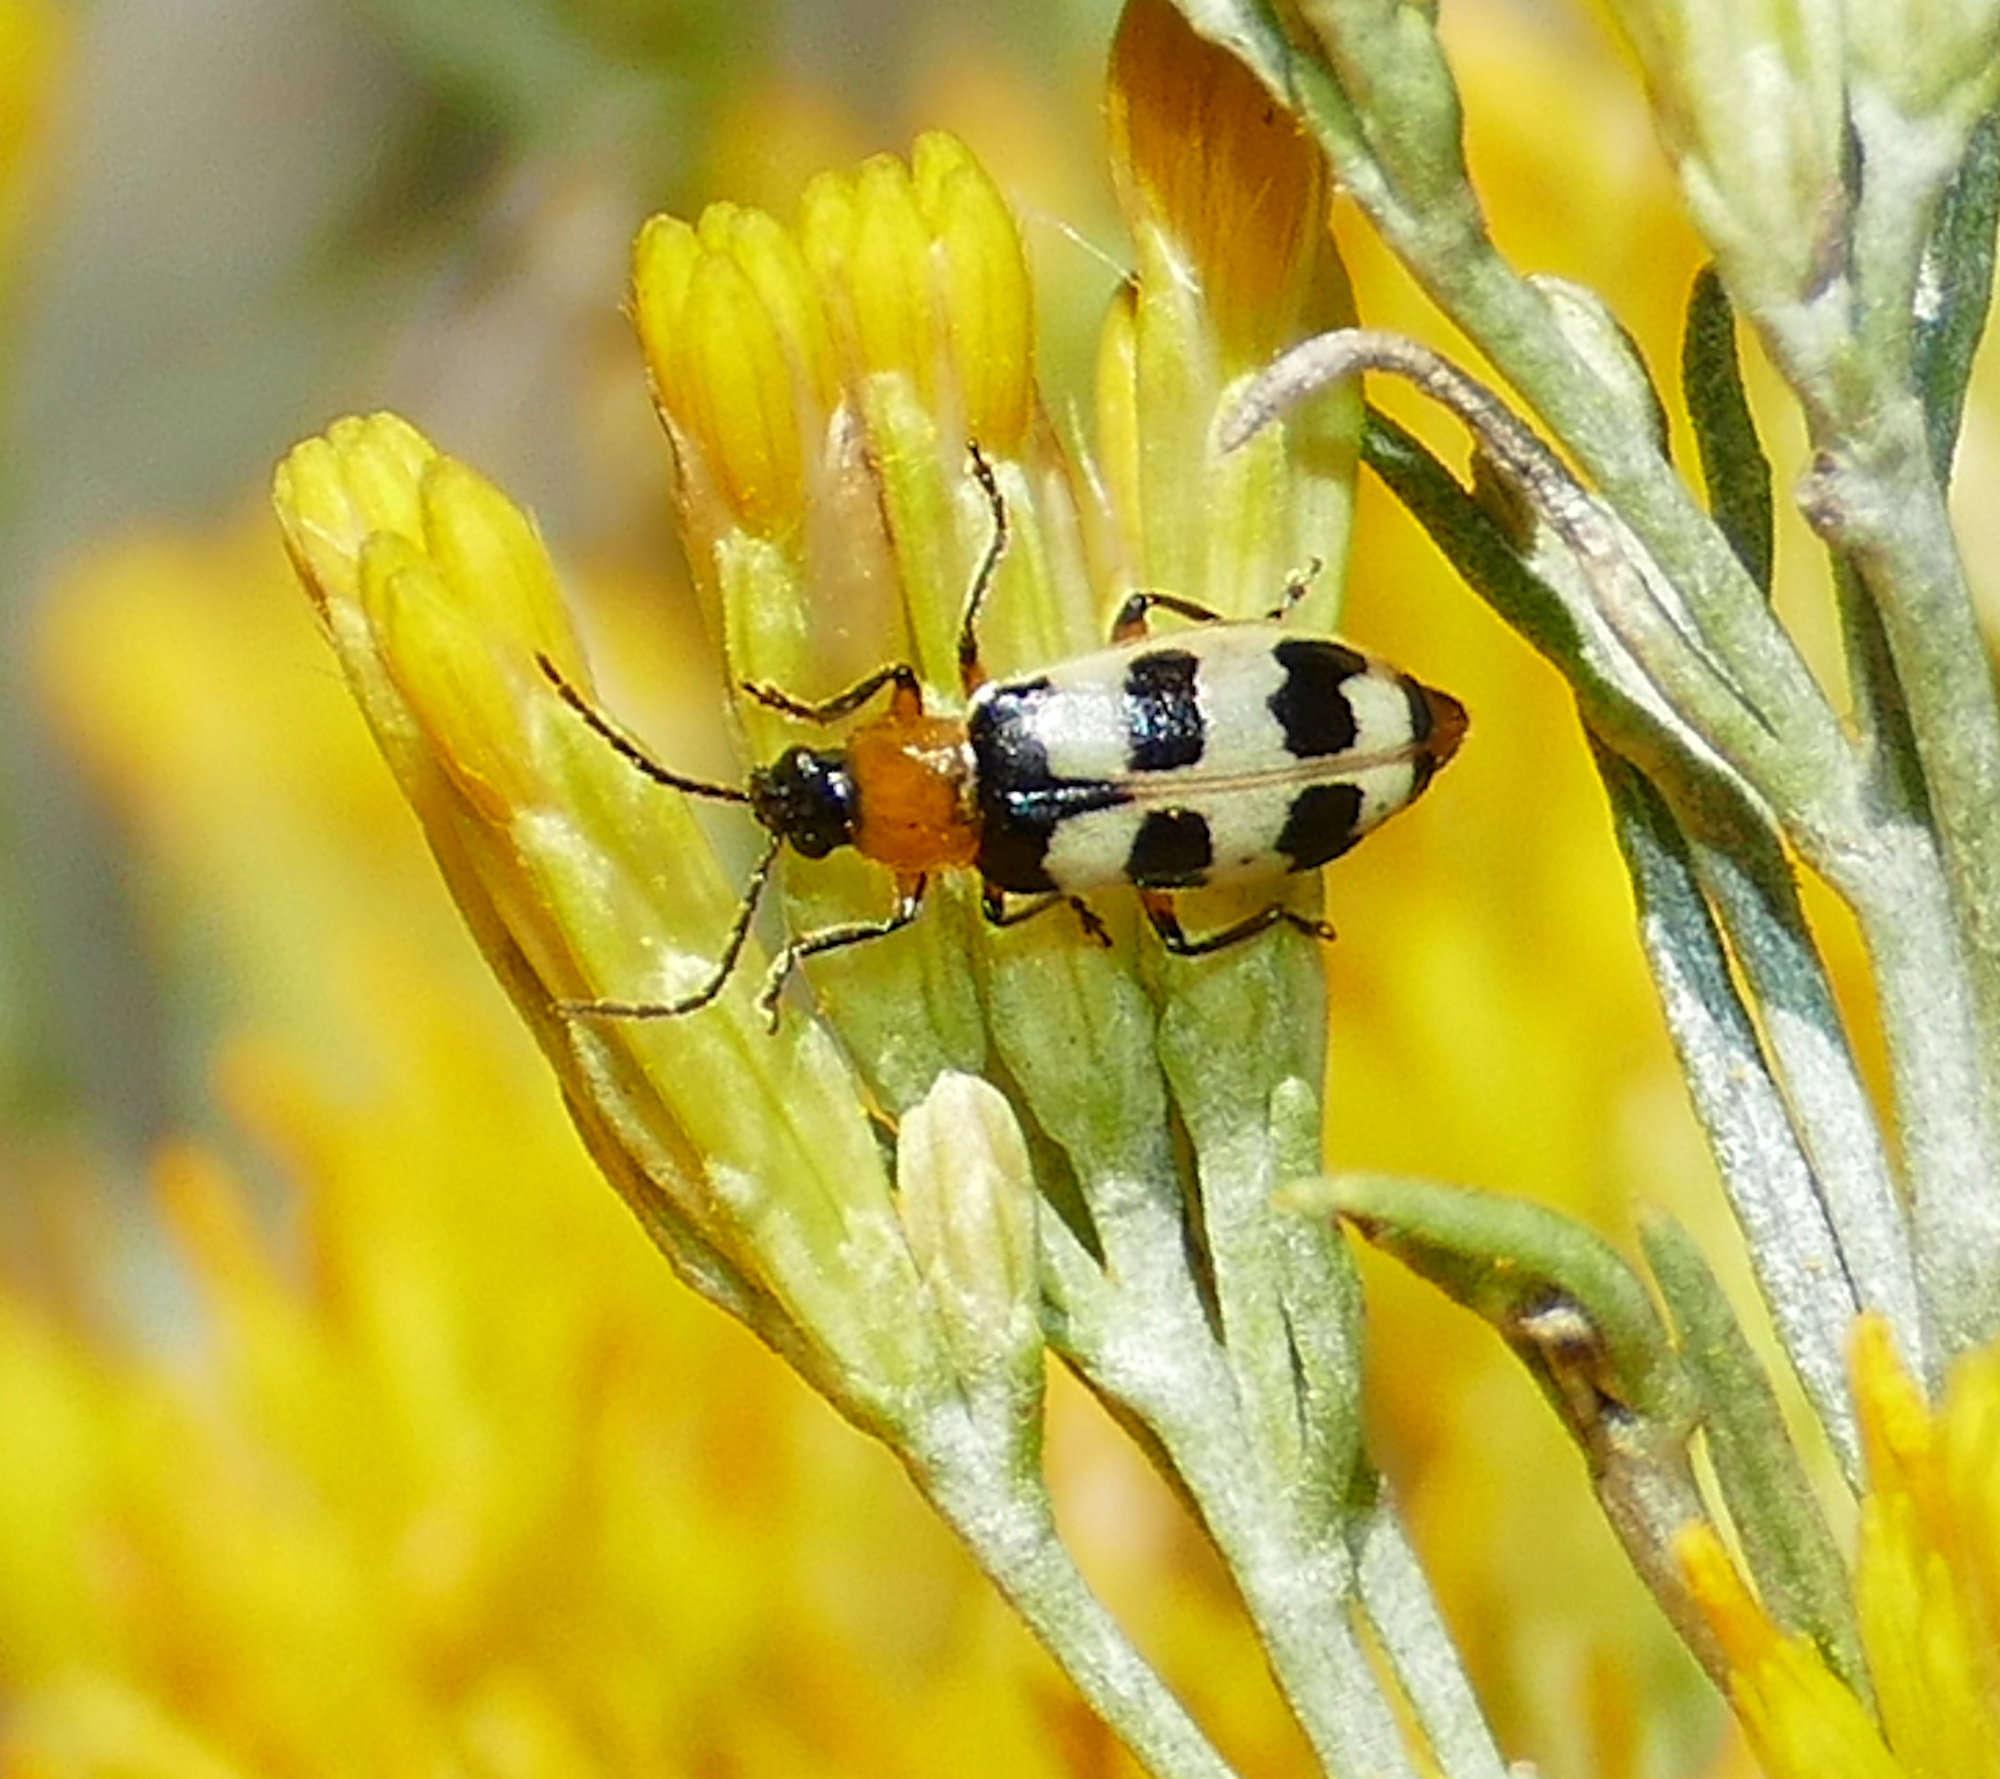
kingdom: Animalia
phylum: Arthropoda
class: Insecta
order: Coleoptera
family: Chrysomelidae
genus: Paranapiacaba
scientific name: Paranapiacaba tricincta
